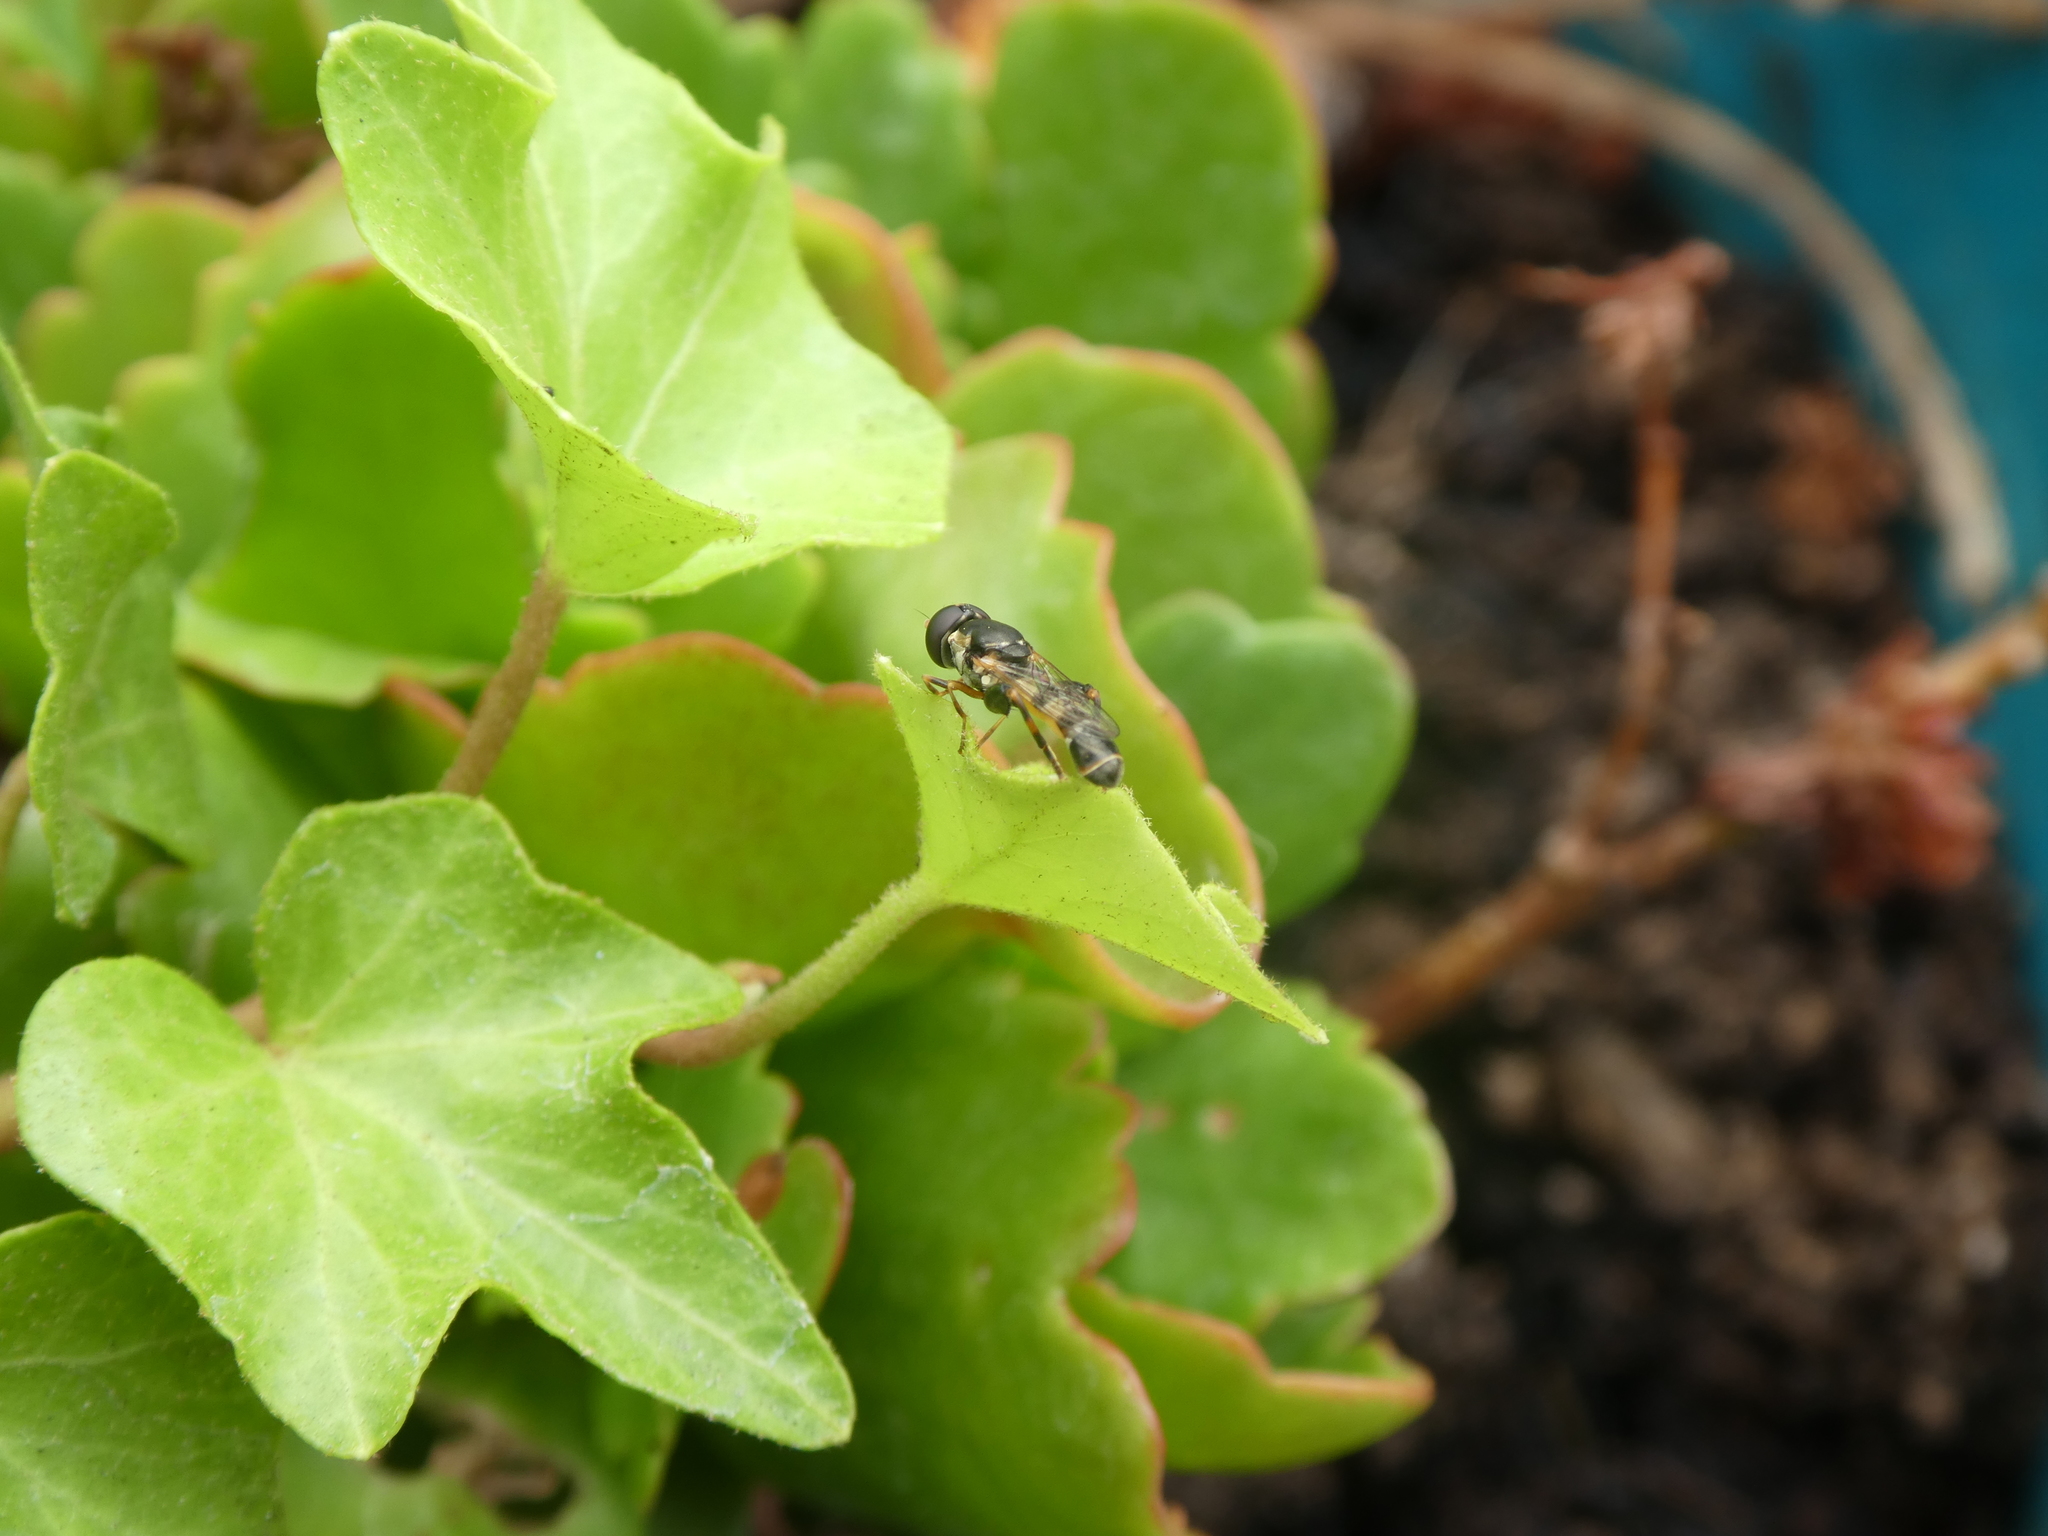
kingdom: Animalia
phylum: Arthropoda
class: Insecta
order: Diptera
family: Syrphidae
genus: Syritta
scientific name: Syritta pipiens
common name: Hover fly
